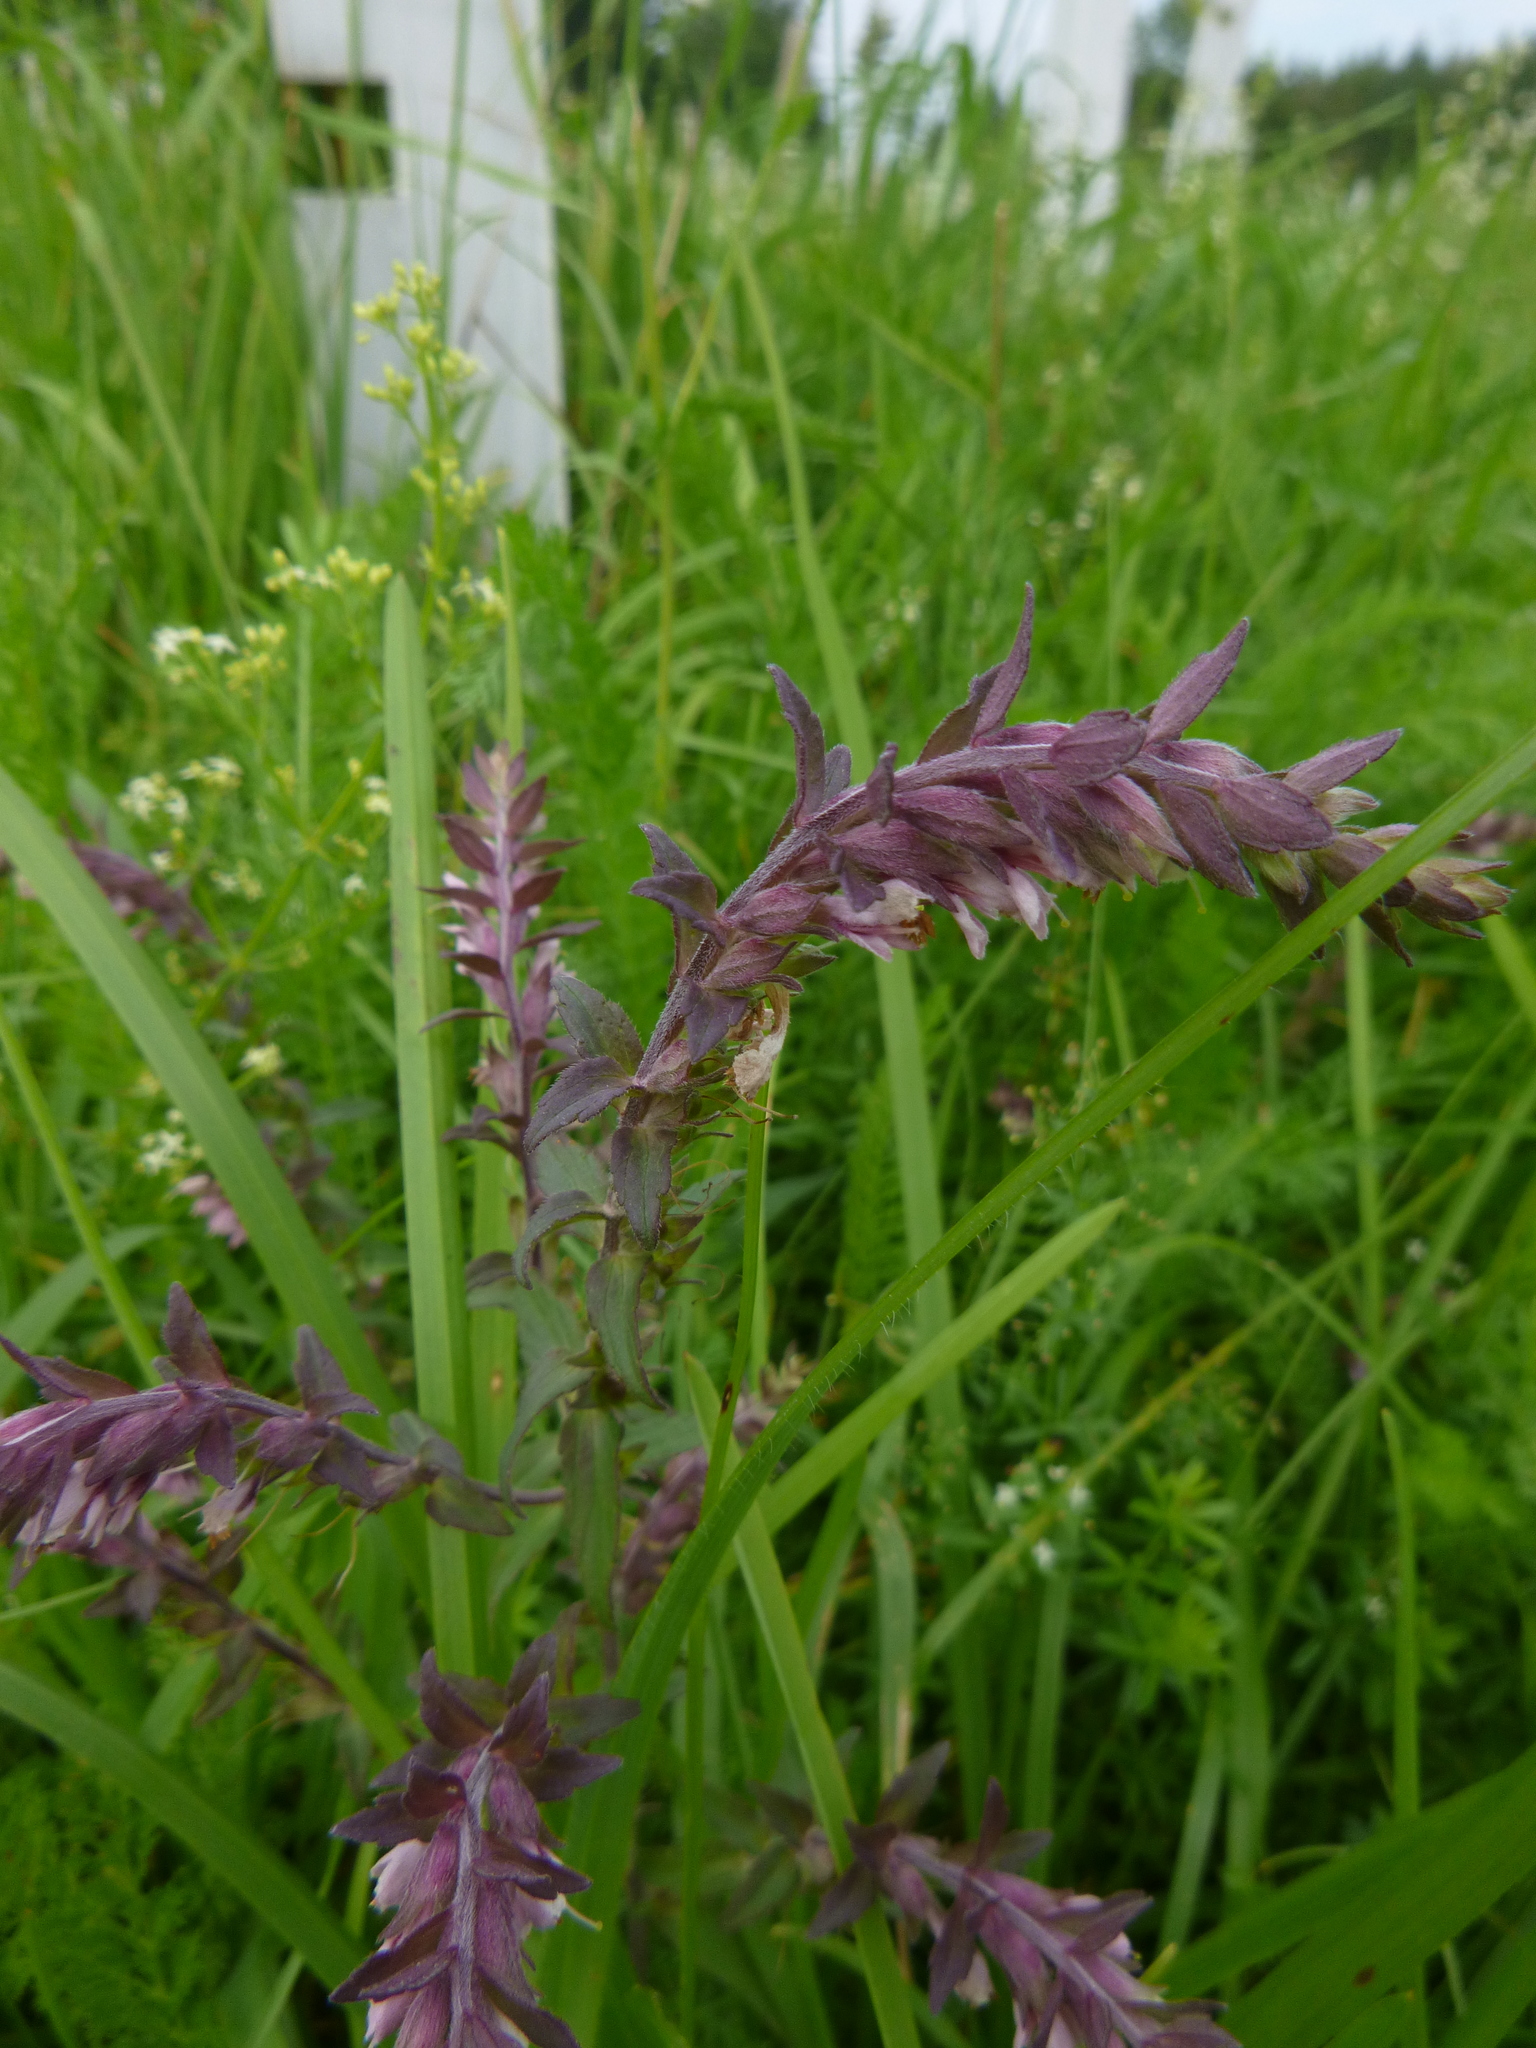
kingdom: Plantae
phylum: Tracheophyta
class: Magnoliopsida
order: Lamiales
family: Orobanchaceae
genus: Odontites
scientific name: Odontites vulgaris
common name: Broomrape
